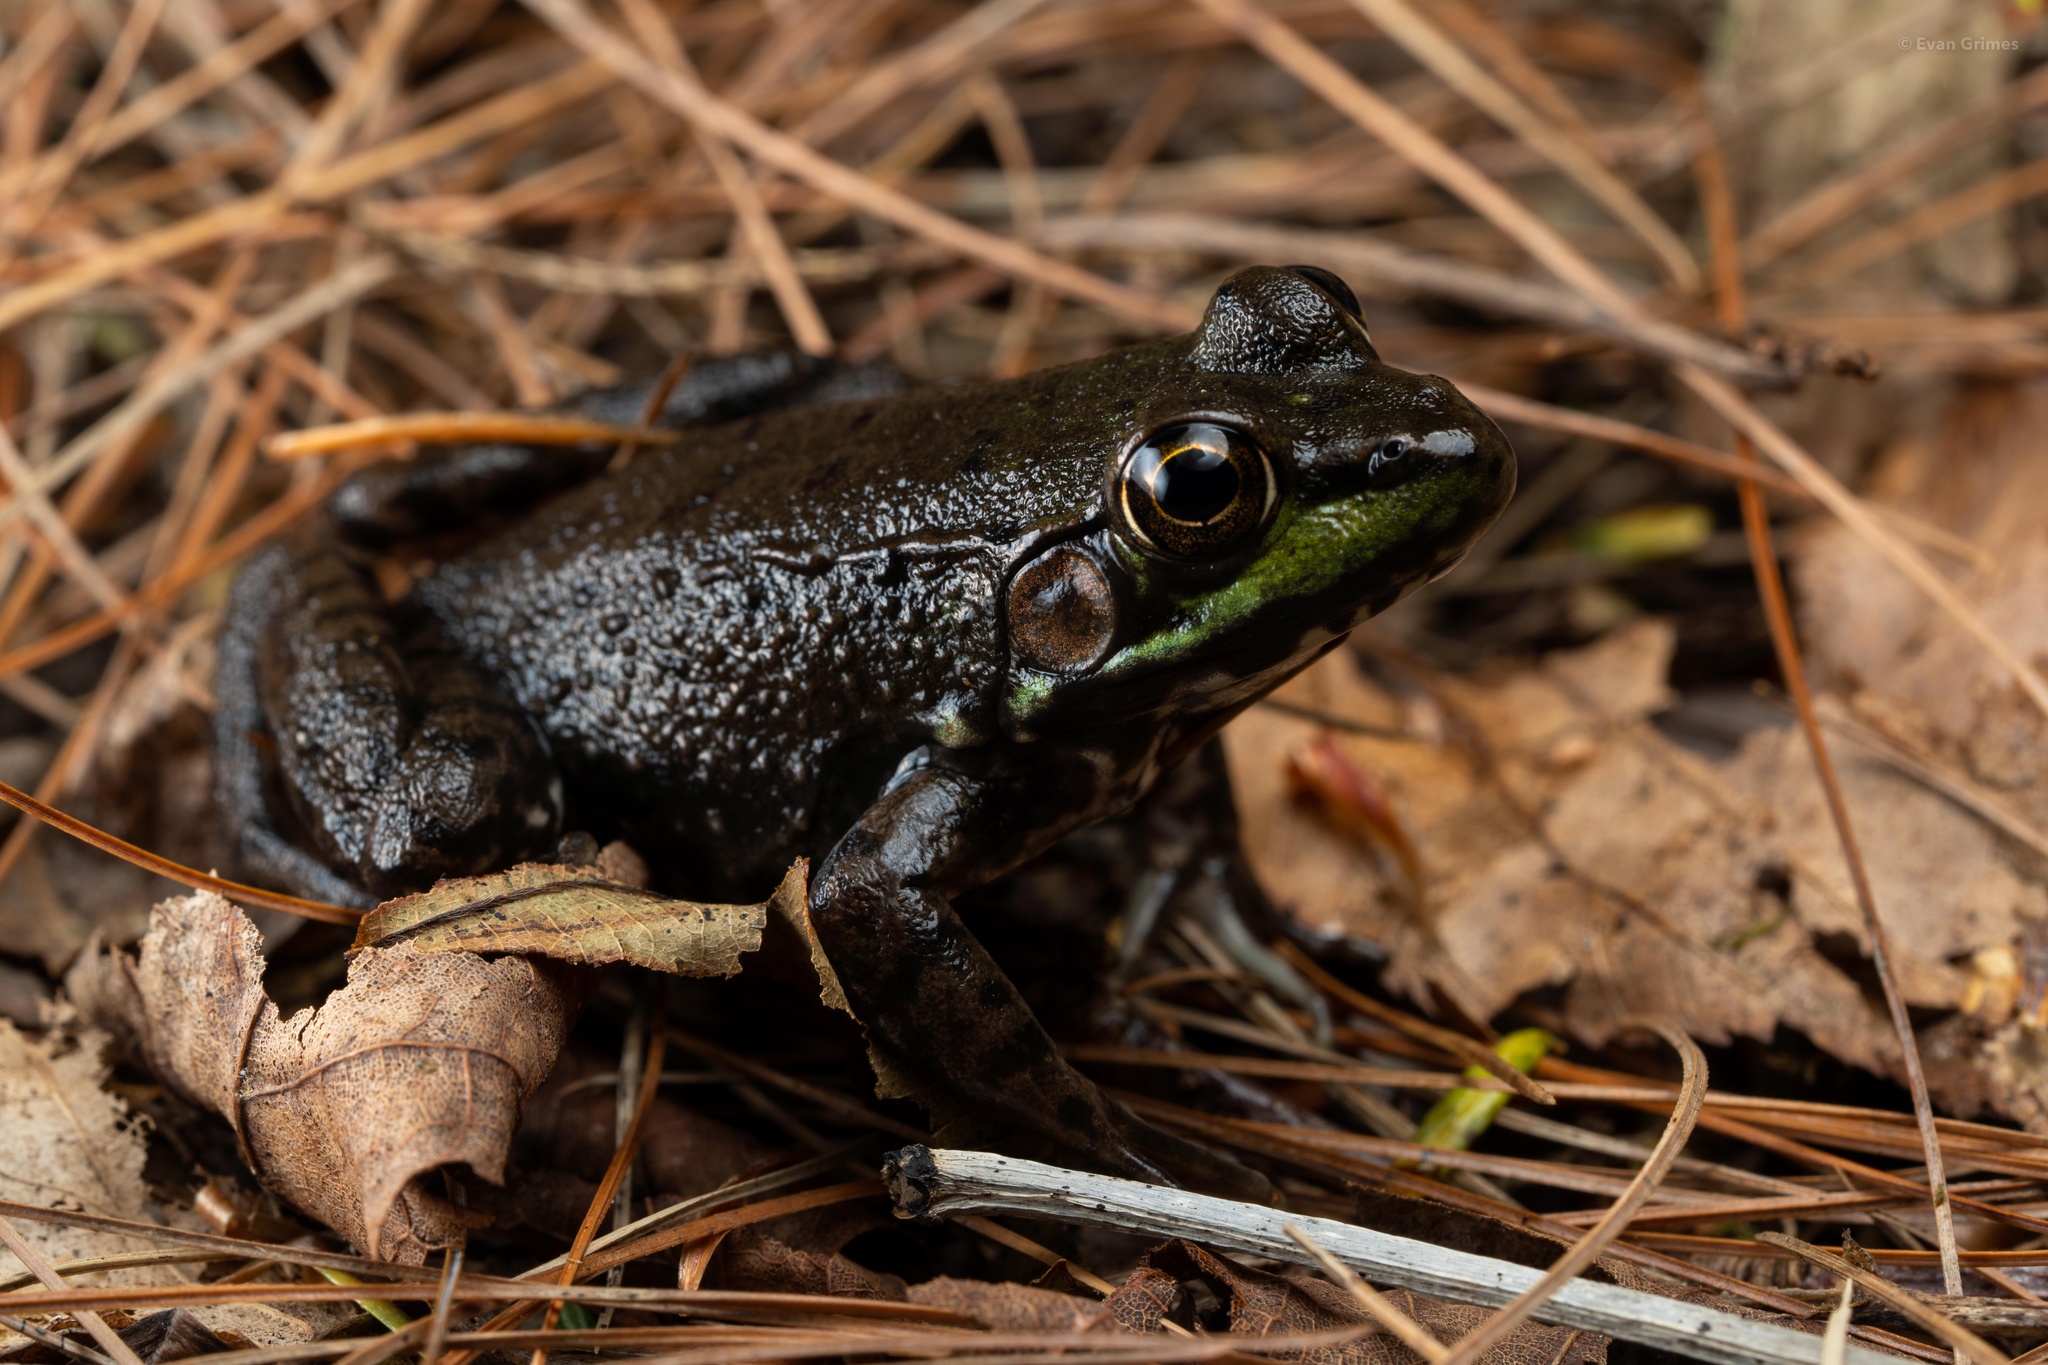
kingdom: Animalia
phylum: Chordata
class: Amphibia
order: Anura
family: Ranidae
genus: Lithobates
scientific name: Lithobates clamitans
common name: Green frog
